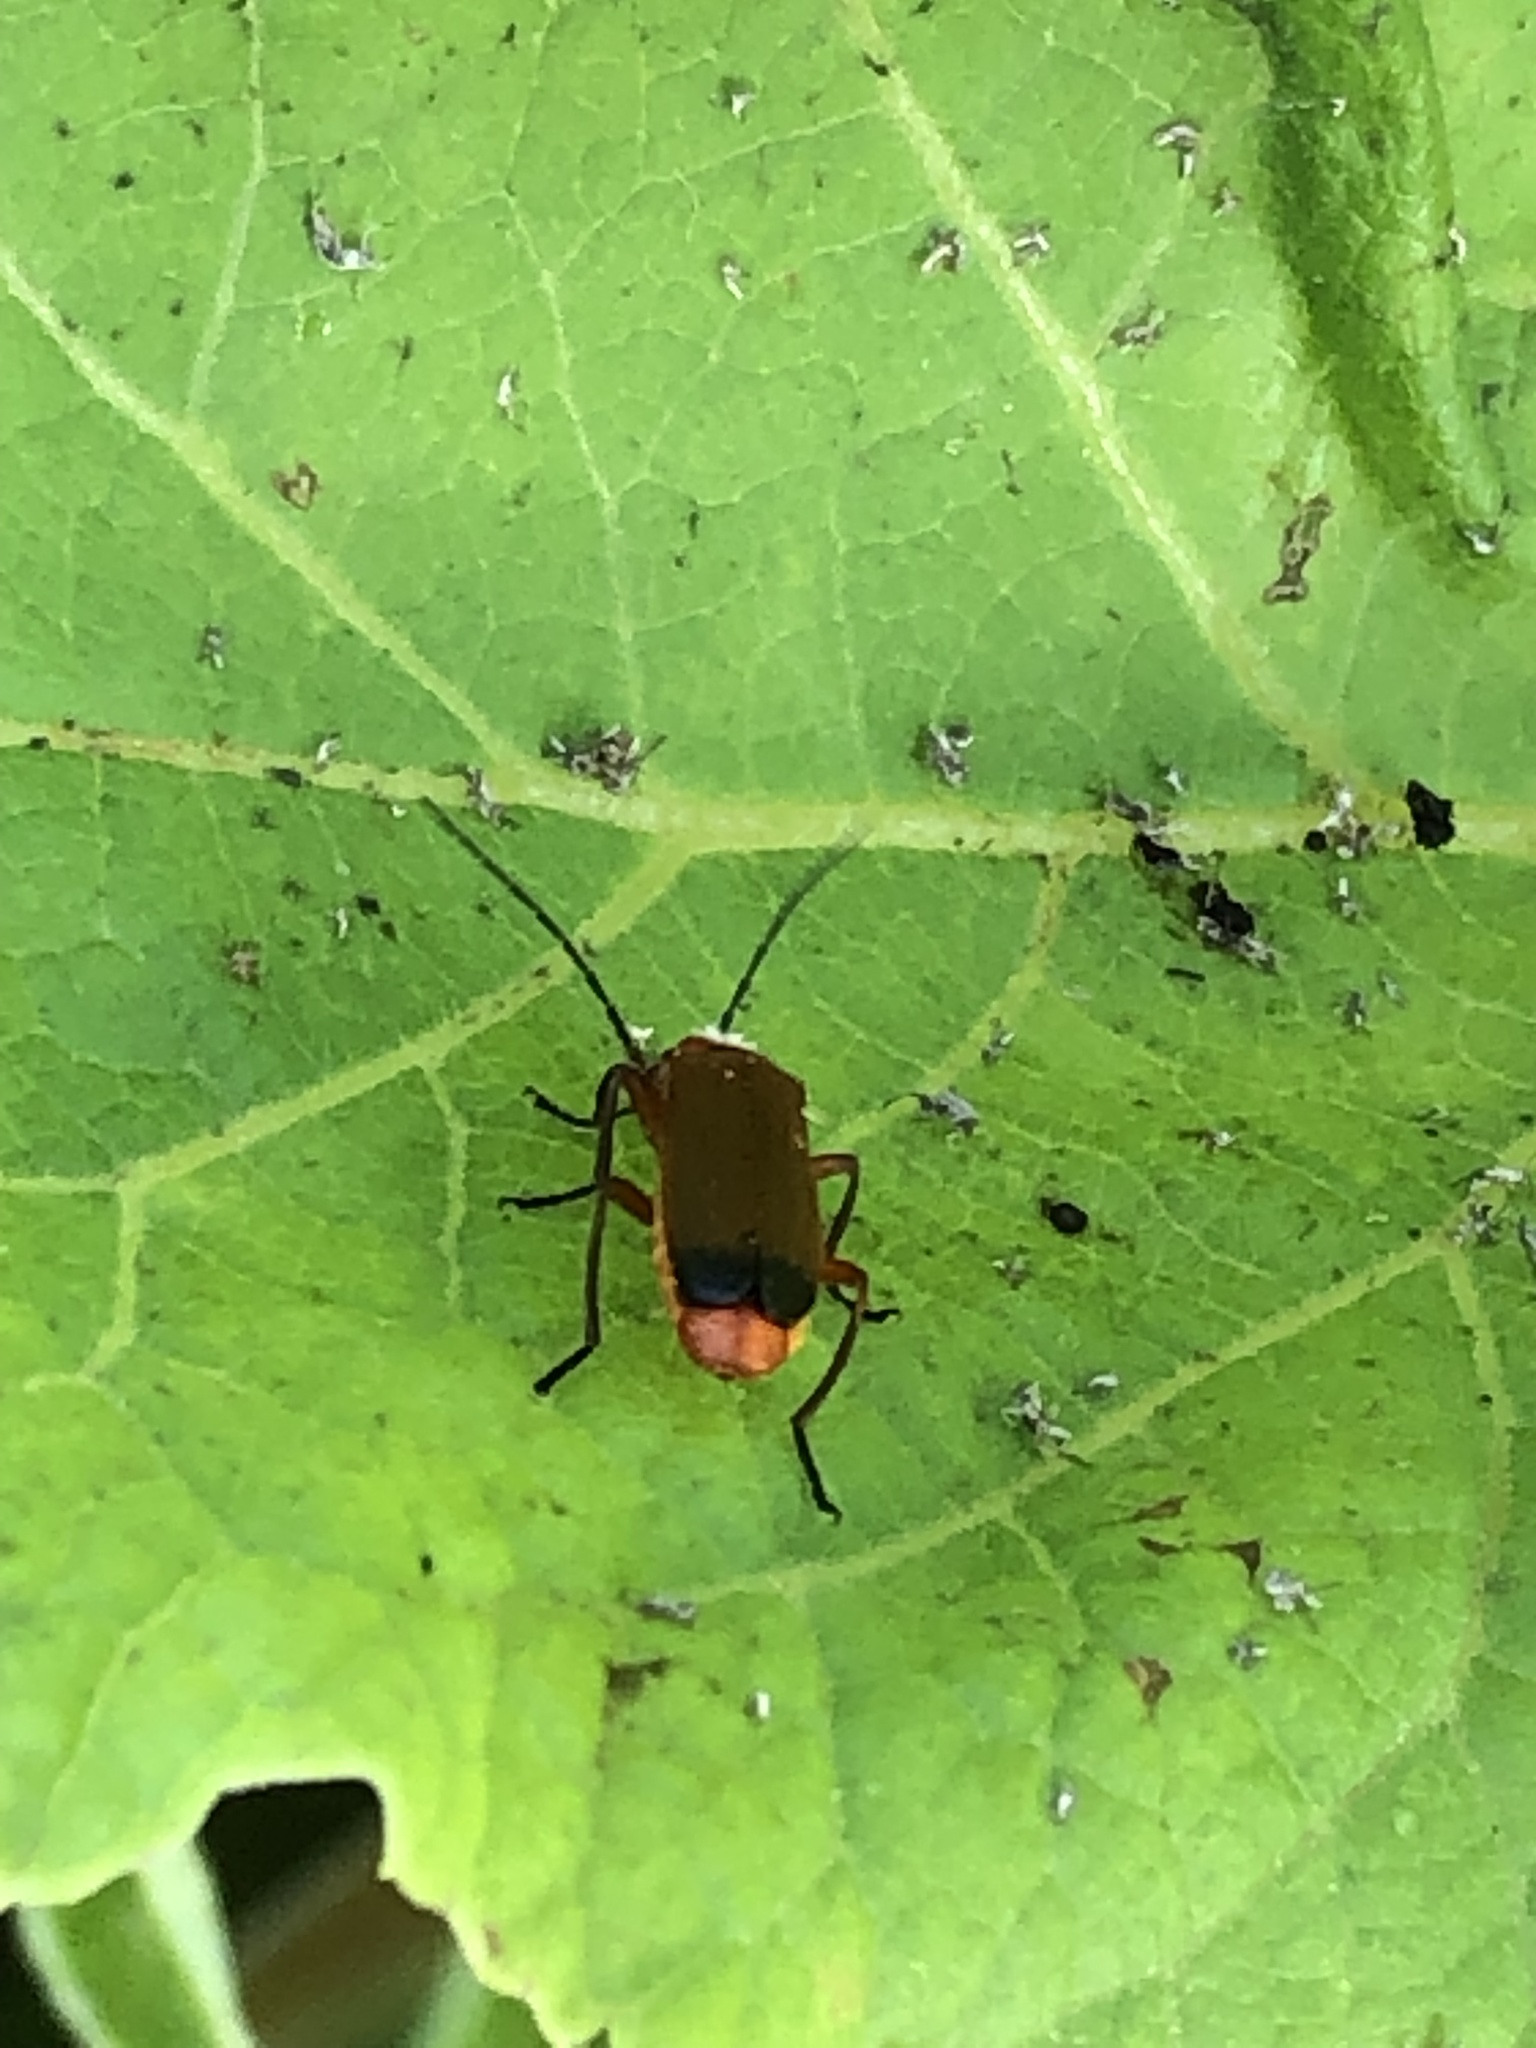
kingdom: Animalia
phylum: Arthropoda
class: Insecta
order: Coleoptera
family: Cantharidae
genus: Rhagonycha
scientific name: Rhagonycha fulva
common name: Common red soldier beetle
